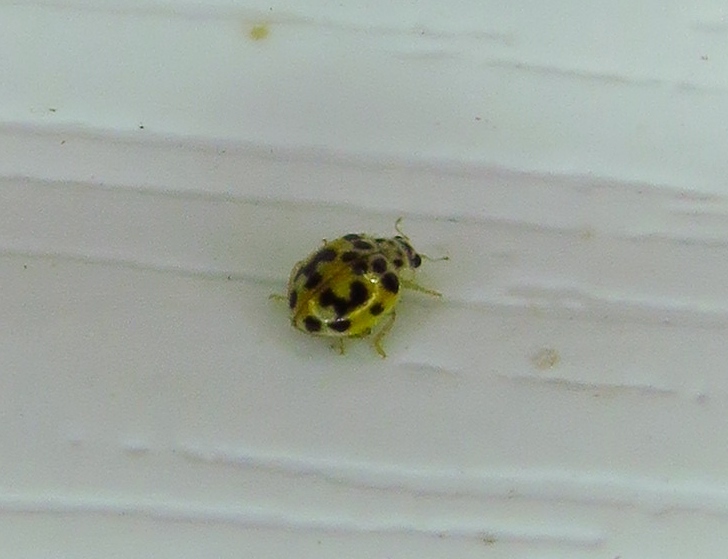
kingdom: Animalia
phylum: Arthropoda
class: Insecta
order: Coleoptera
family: Coccinellidae
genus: Psyllobora
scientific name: Psyllobora vigintimaculata
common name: Ladybird beetle
